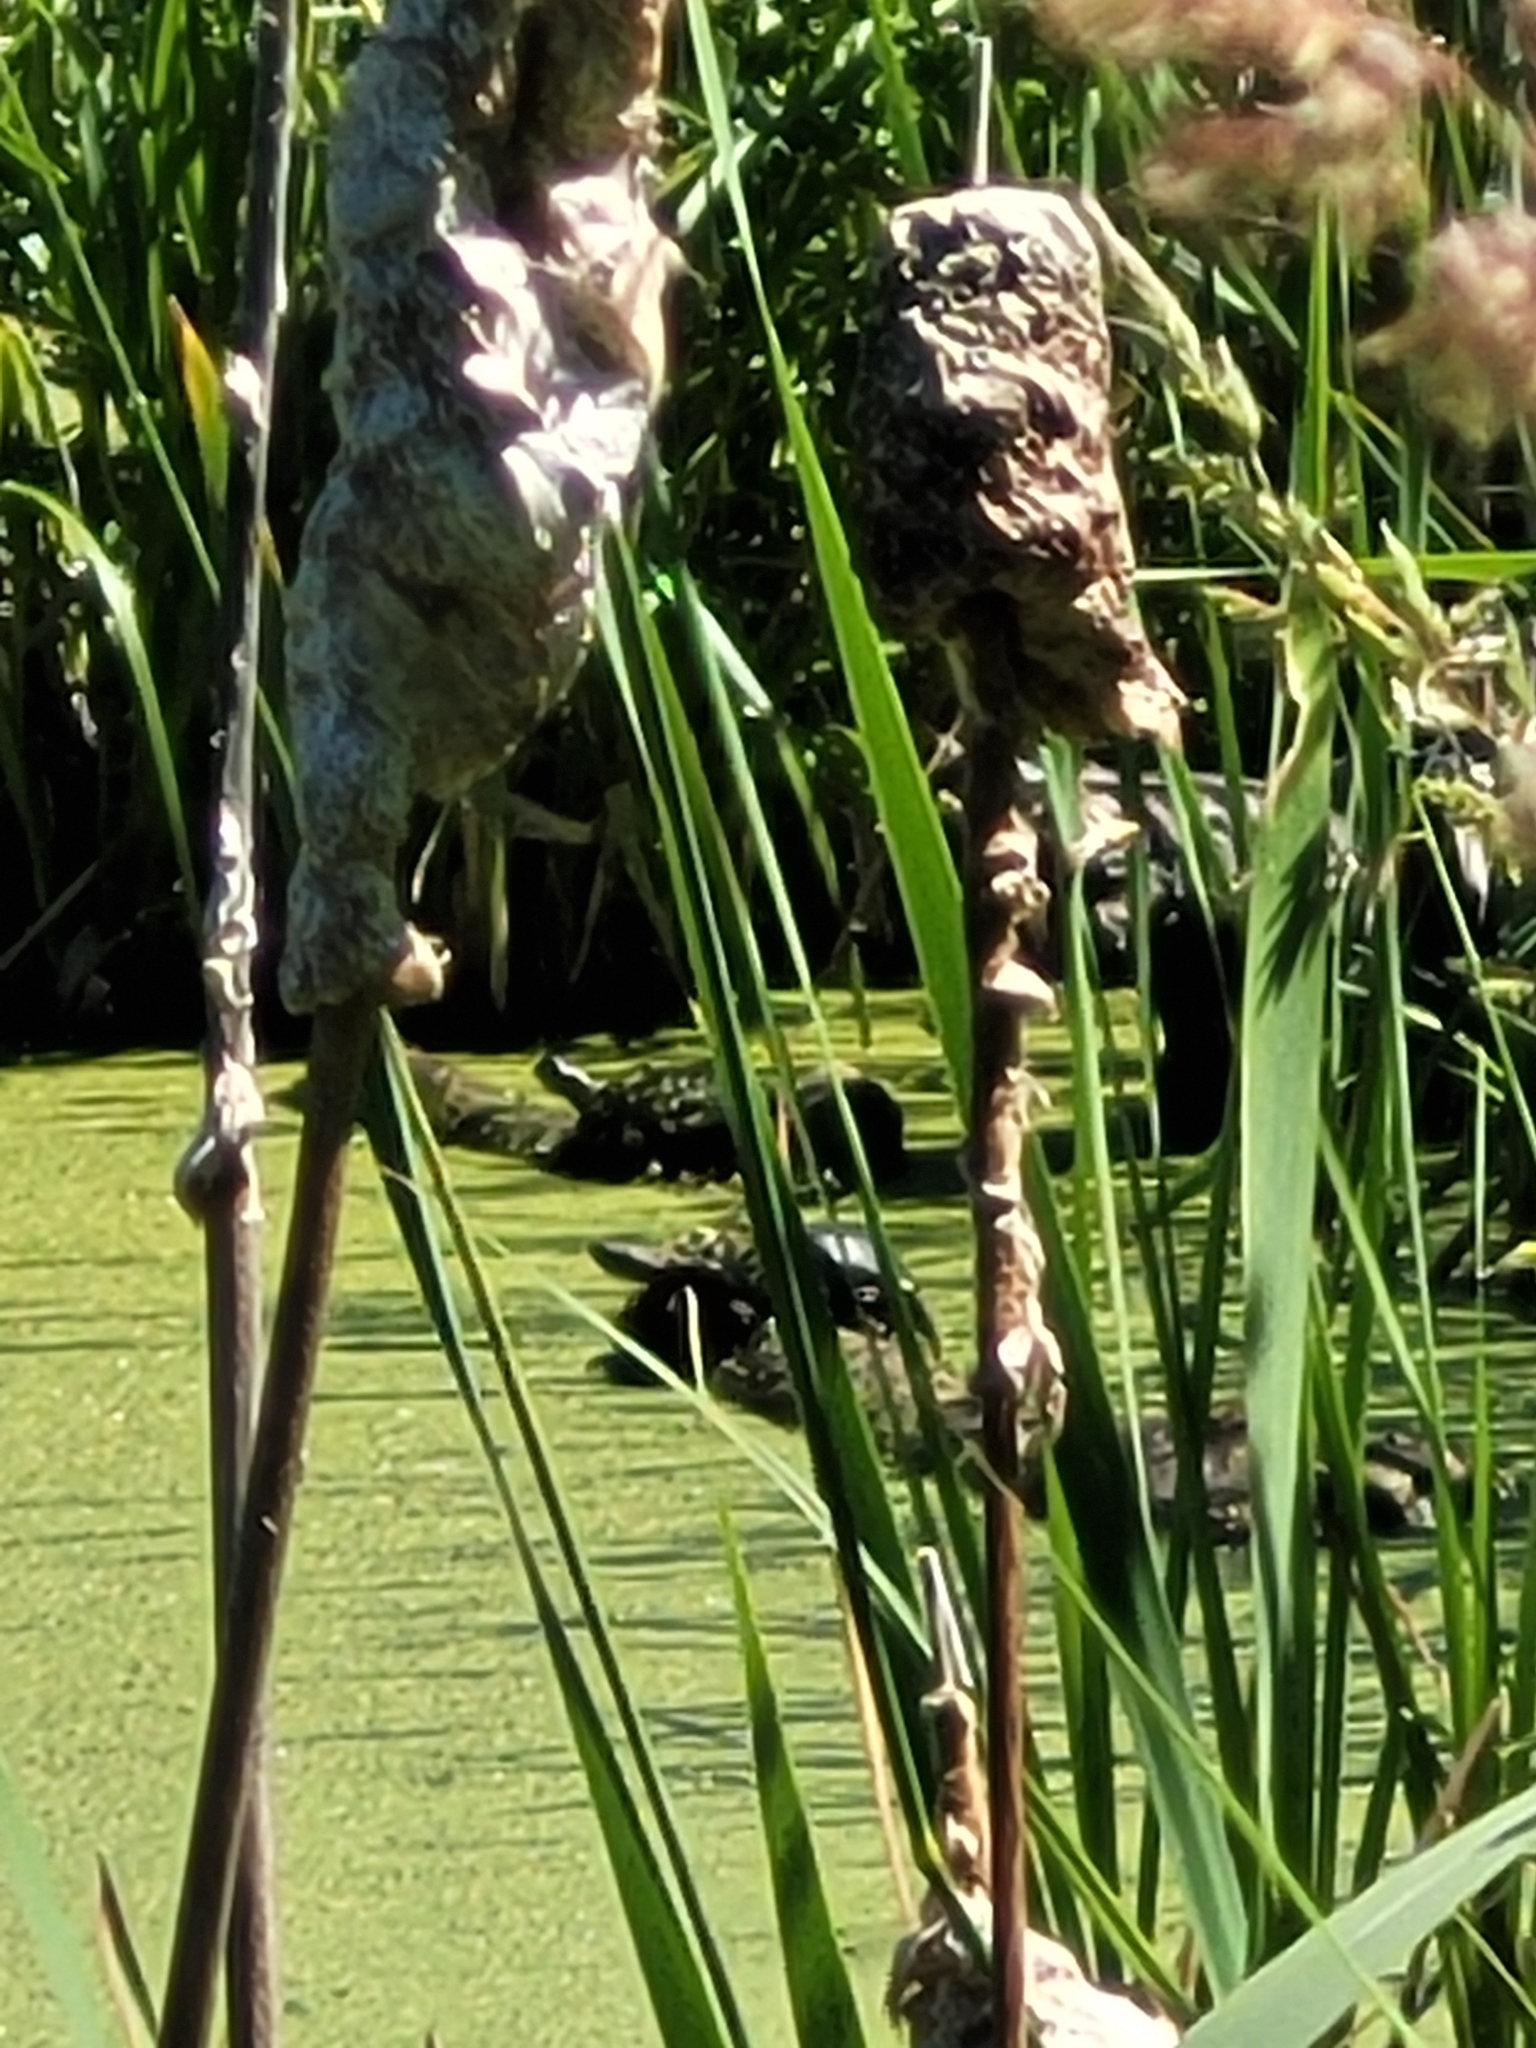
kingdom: Animalia
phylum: Chordata
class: Testudines
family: Emydidae
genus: Chrysemys
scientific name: Chrysemys picta
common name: Painted turtle
